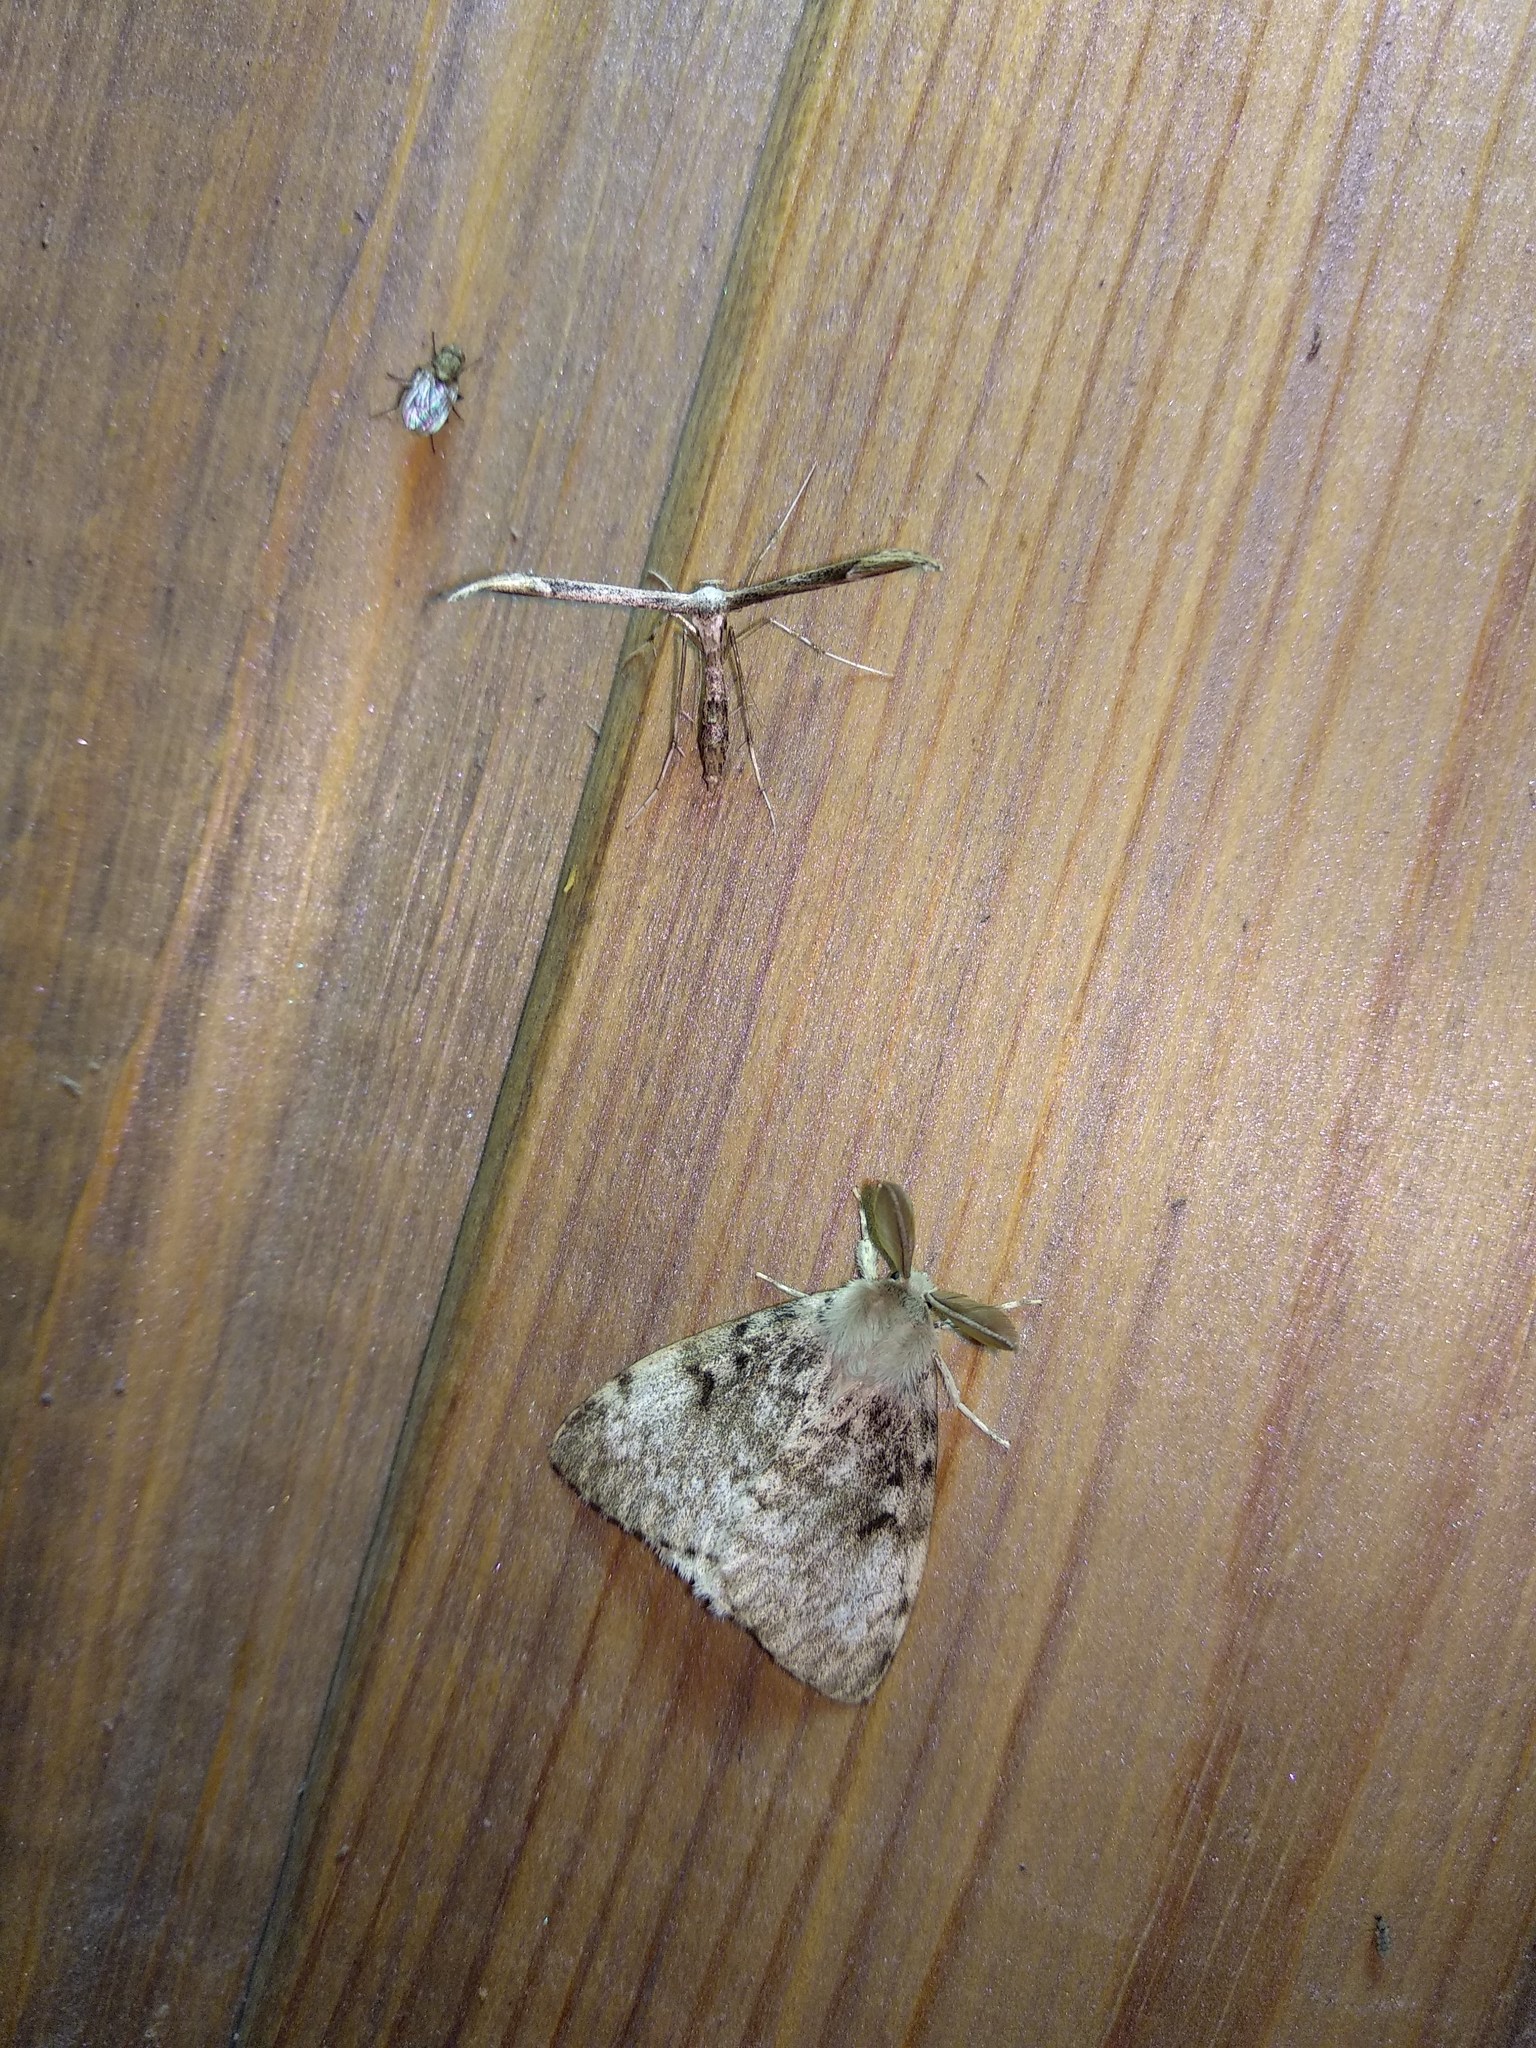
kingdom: Animalia
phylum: Arthropoda
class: Insecta
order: Lepidoptera
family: Erebidae
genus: Lymantria
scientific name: Lymantria dispar
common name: Gypsy moth
